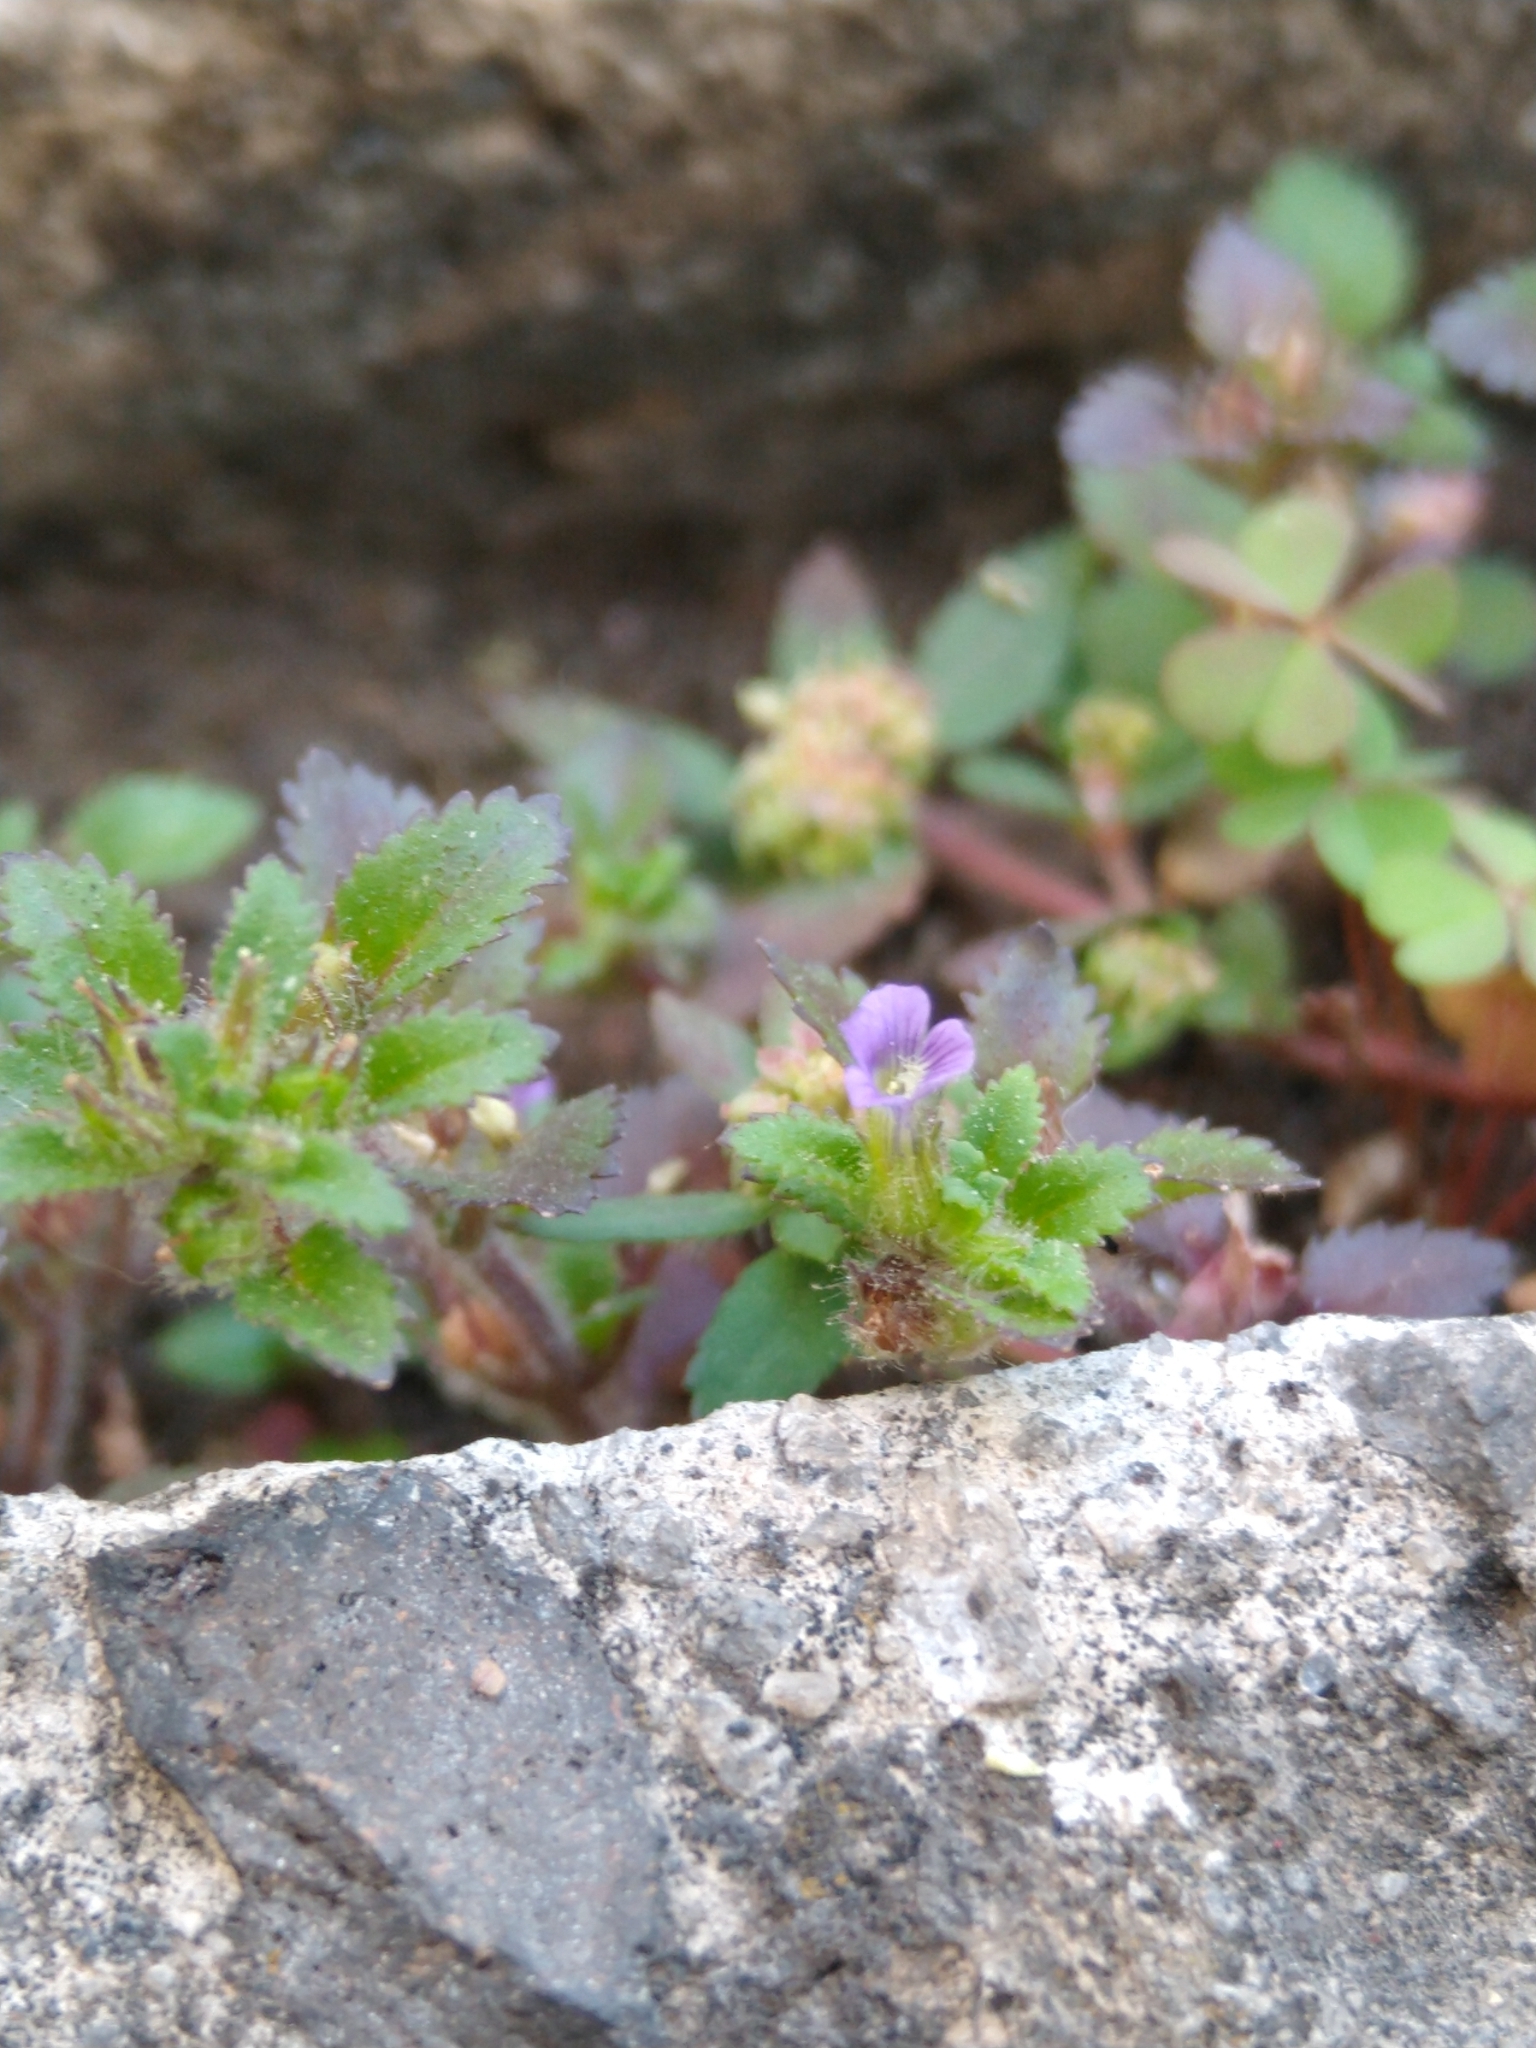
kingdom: Plantae
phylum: Tracheophyta
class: Magnoliopsida
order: Lamiales
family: Plantaginaceae
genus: Stemodia
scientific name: Stemodia verticillata
